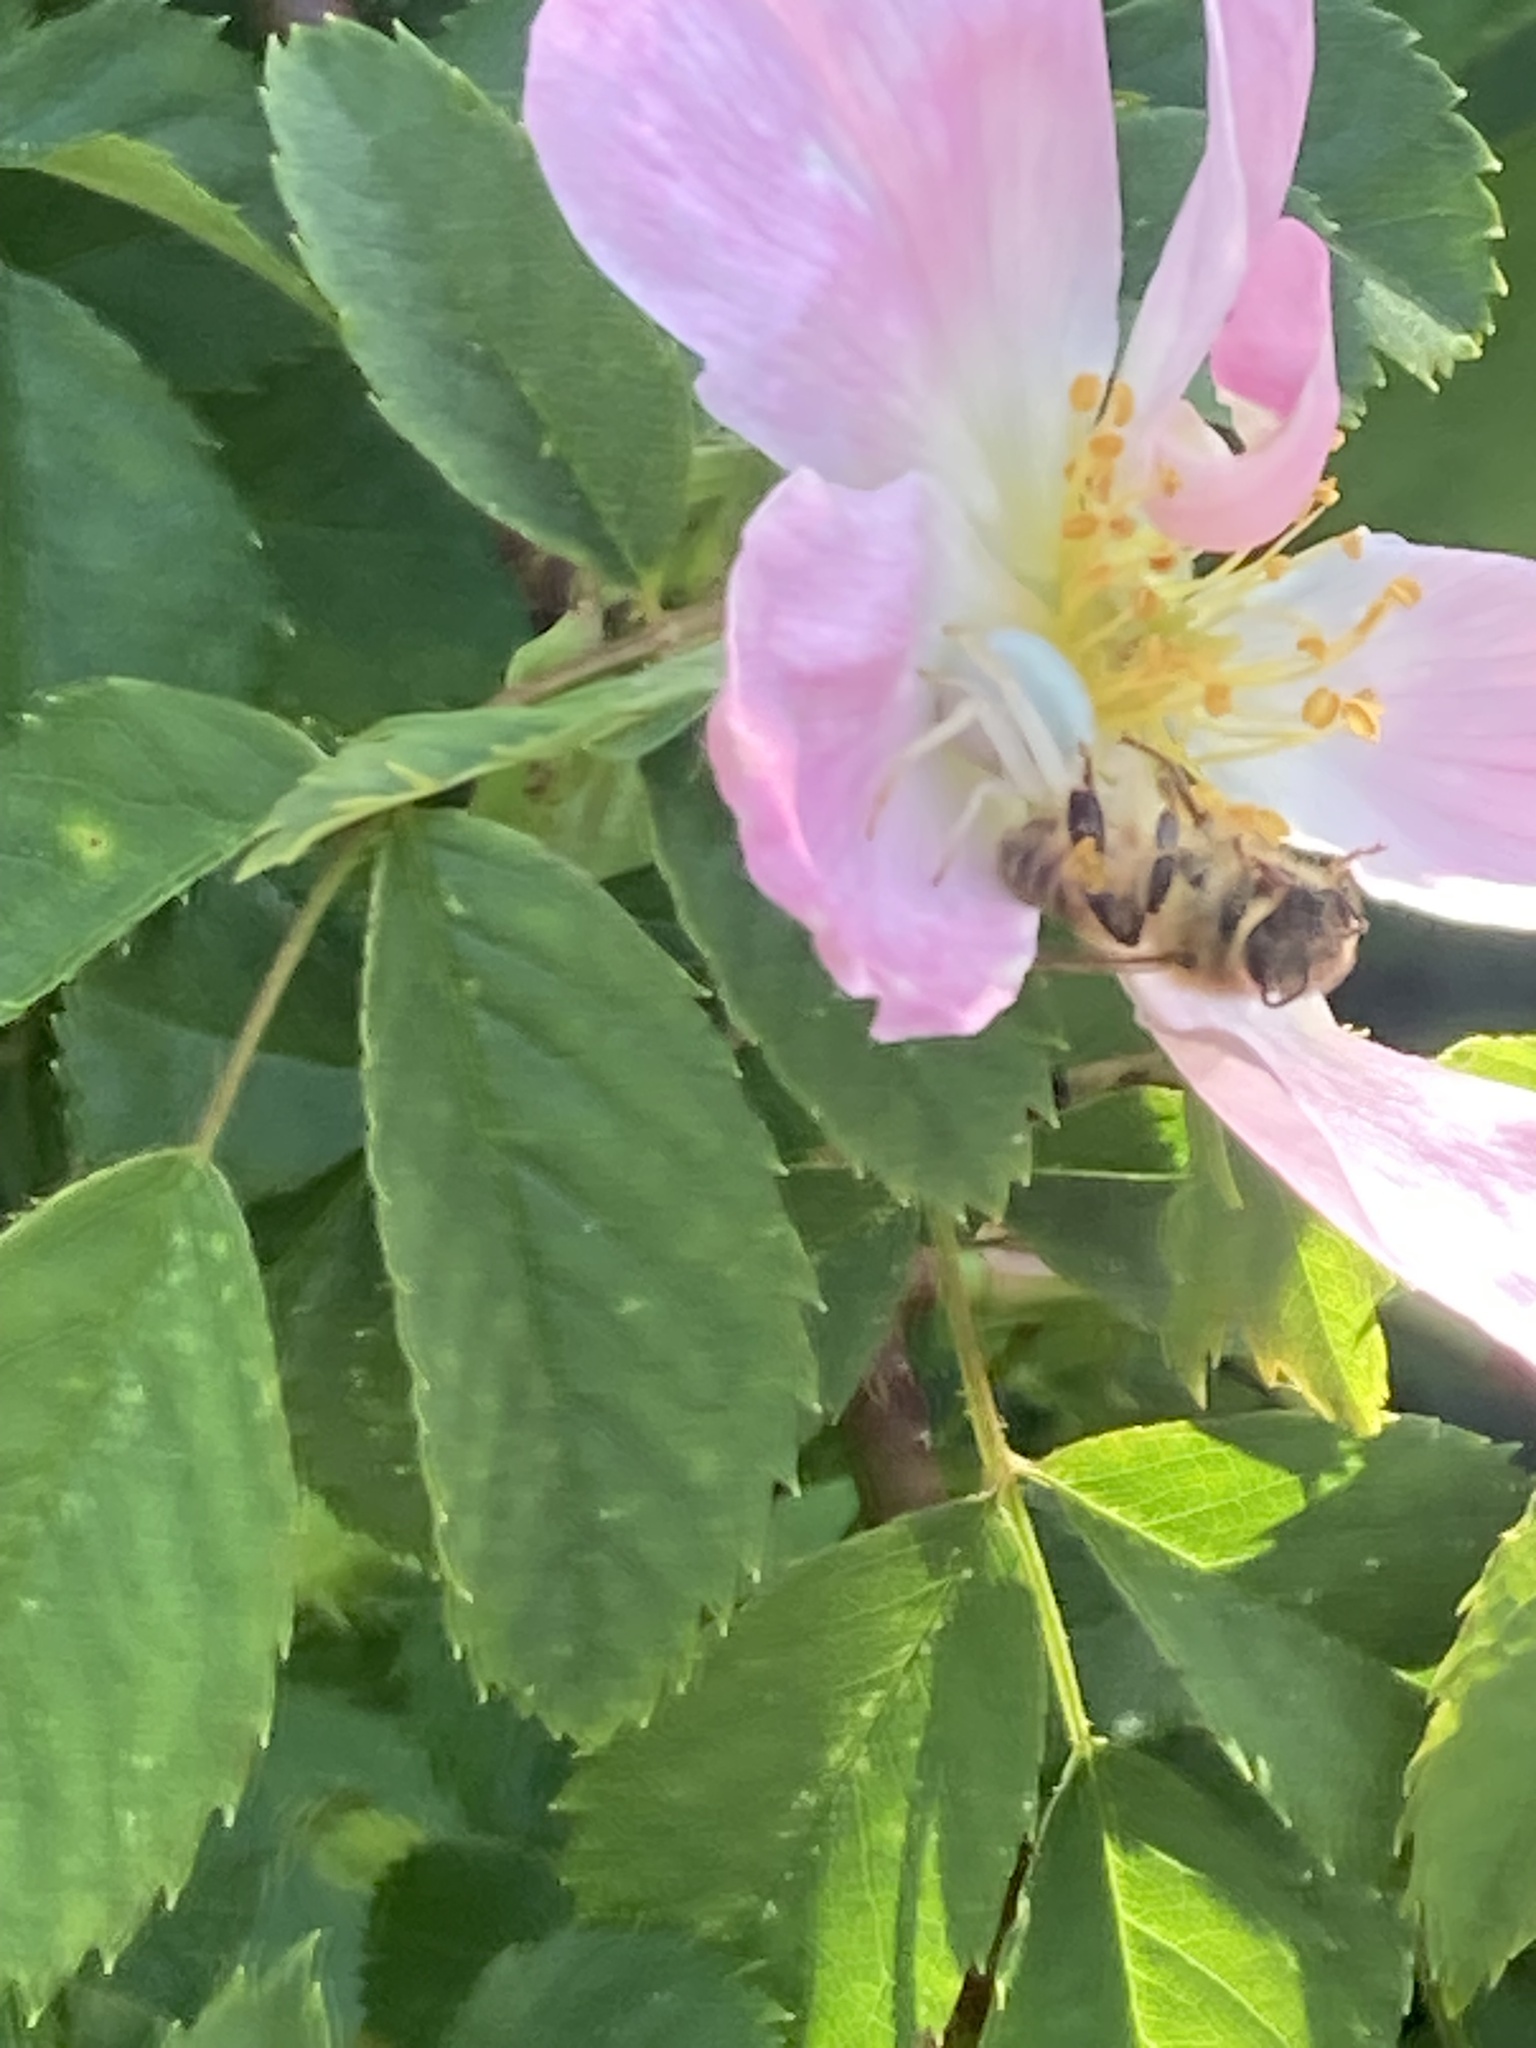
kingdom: Animalia
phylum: Arthropoda
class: Insecta
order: Hymenoptera
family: Apidae
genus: Apis
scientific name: Apis mellifera
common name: Honey bee
